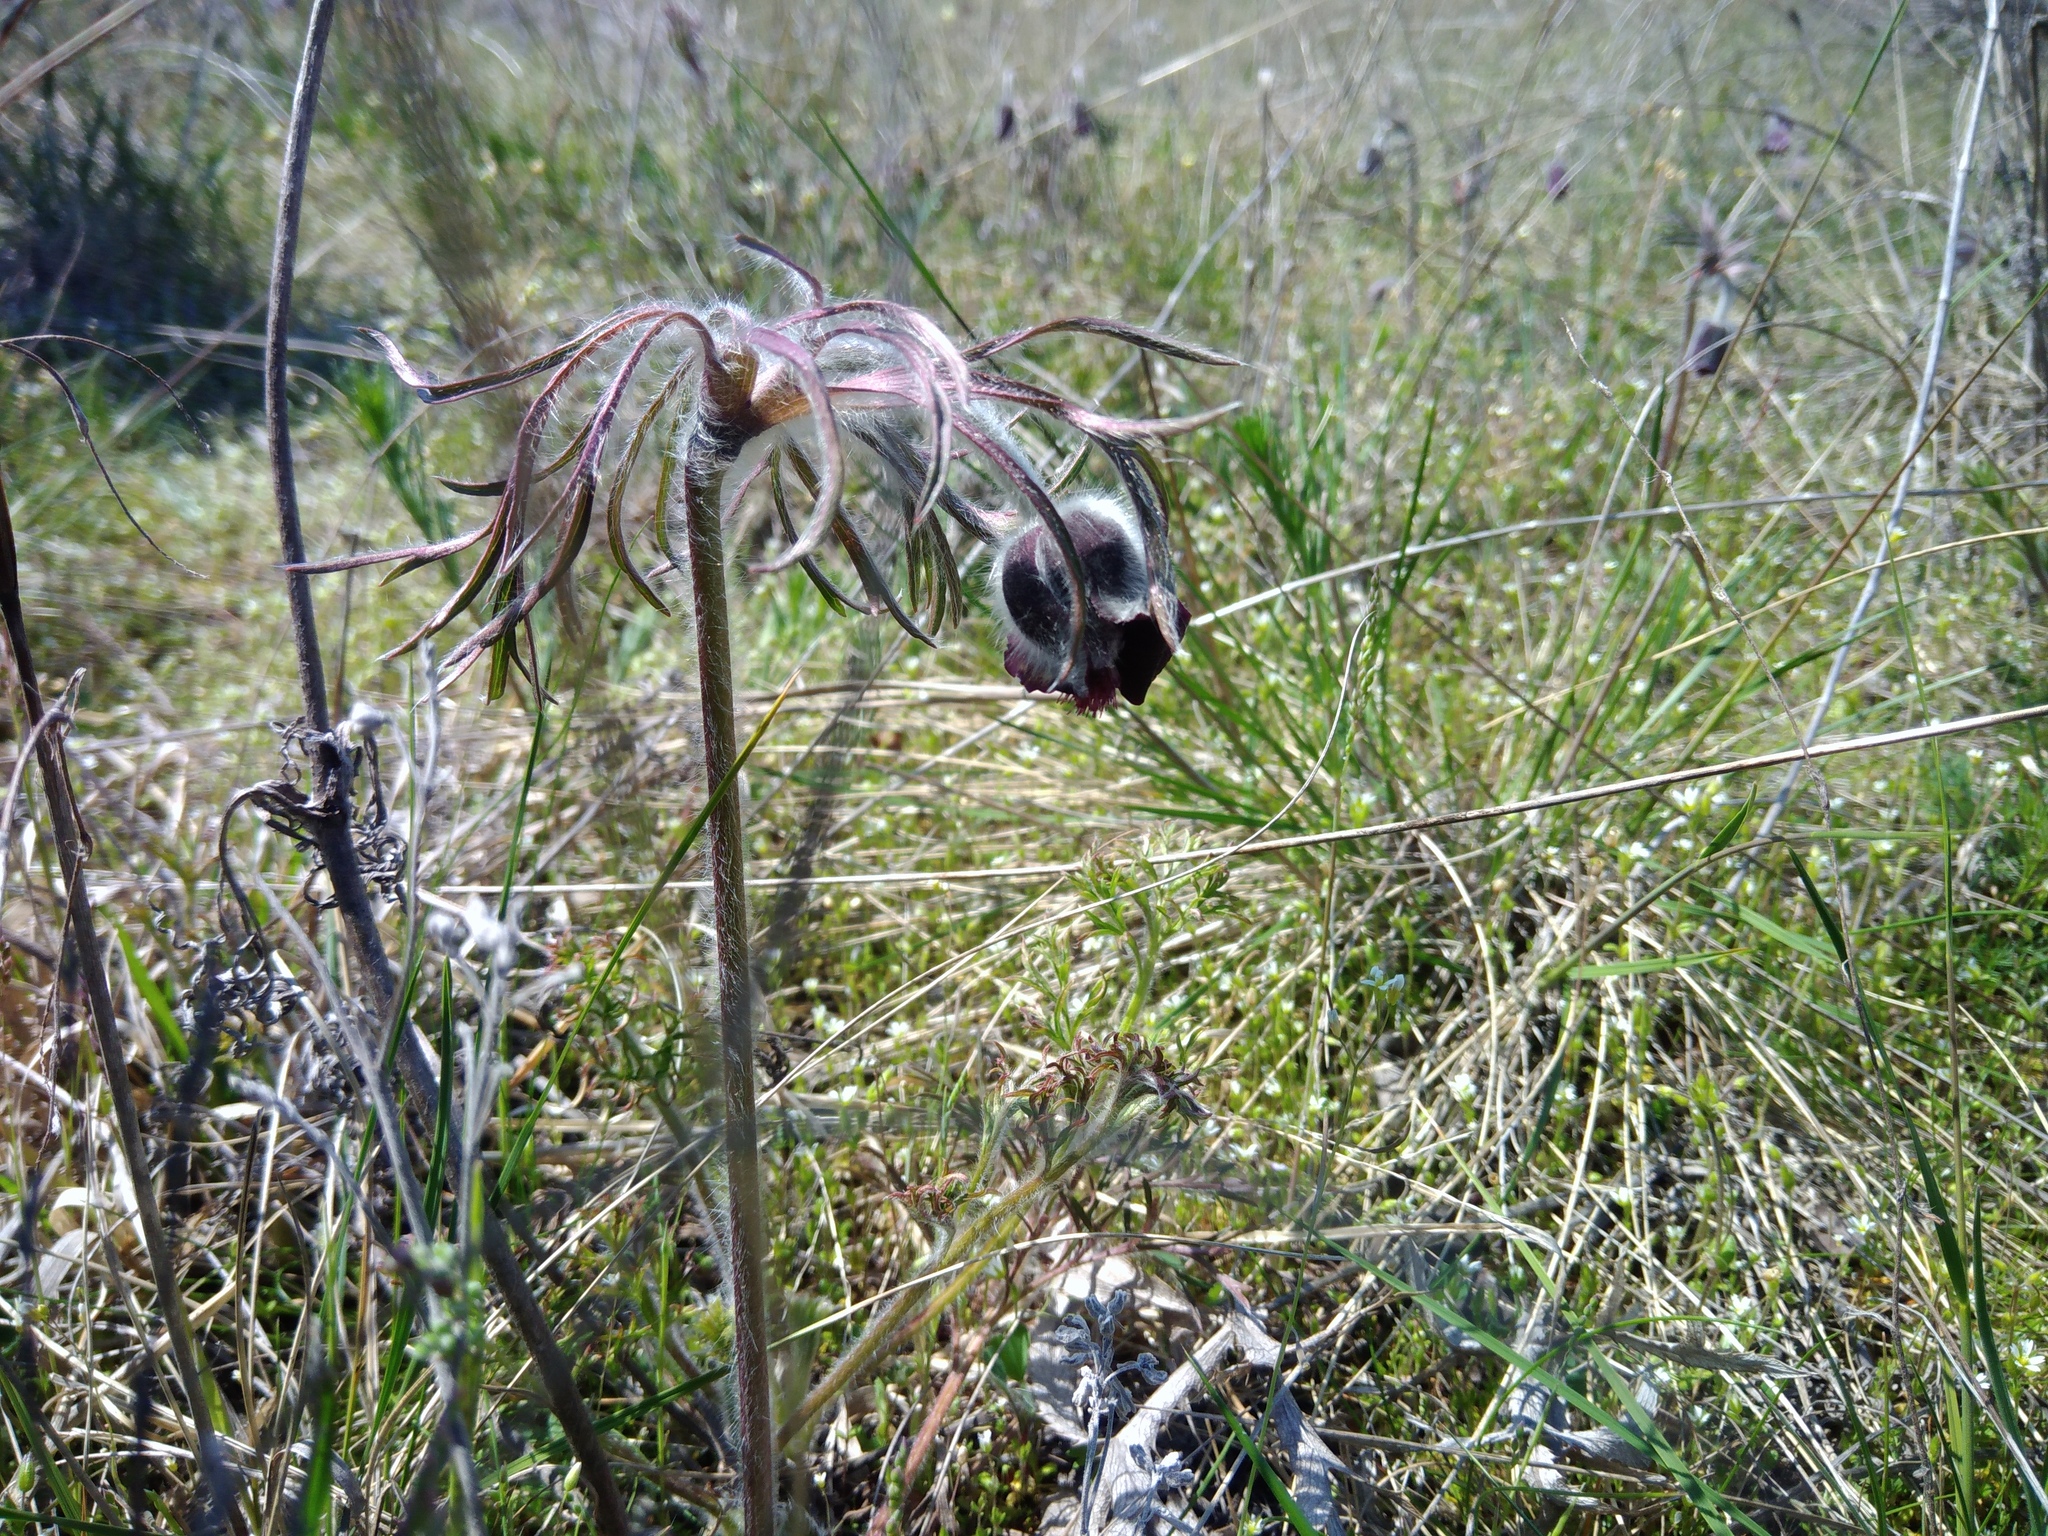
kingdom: Plantae
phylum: Tracheophyta
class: Magnoliopsida
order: Ranunculales
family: Ranunculaceae
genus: Pulsatilla
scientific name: Pulsatilla pratensis
